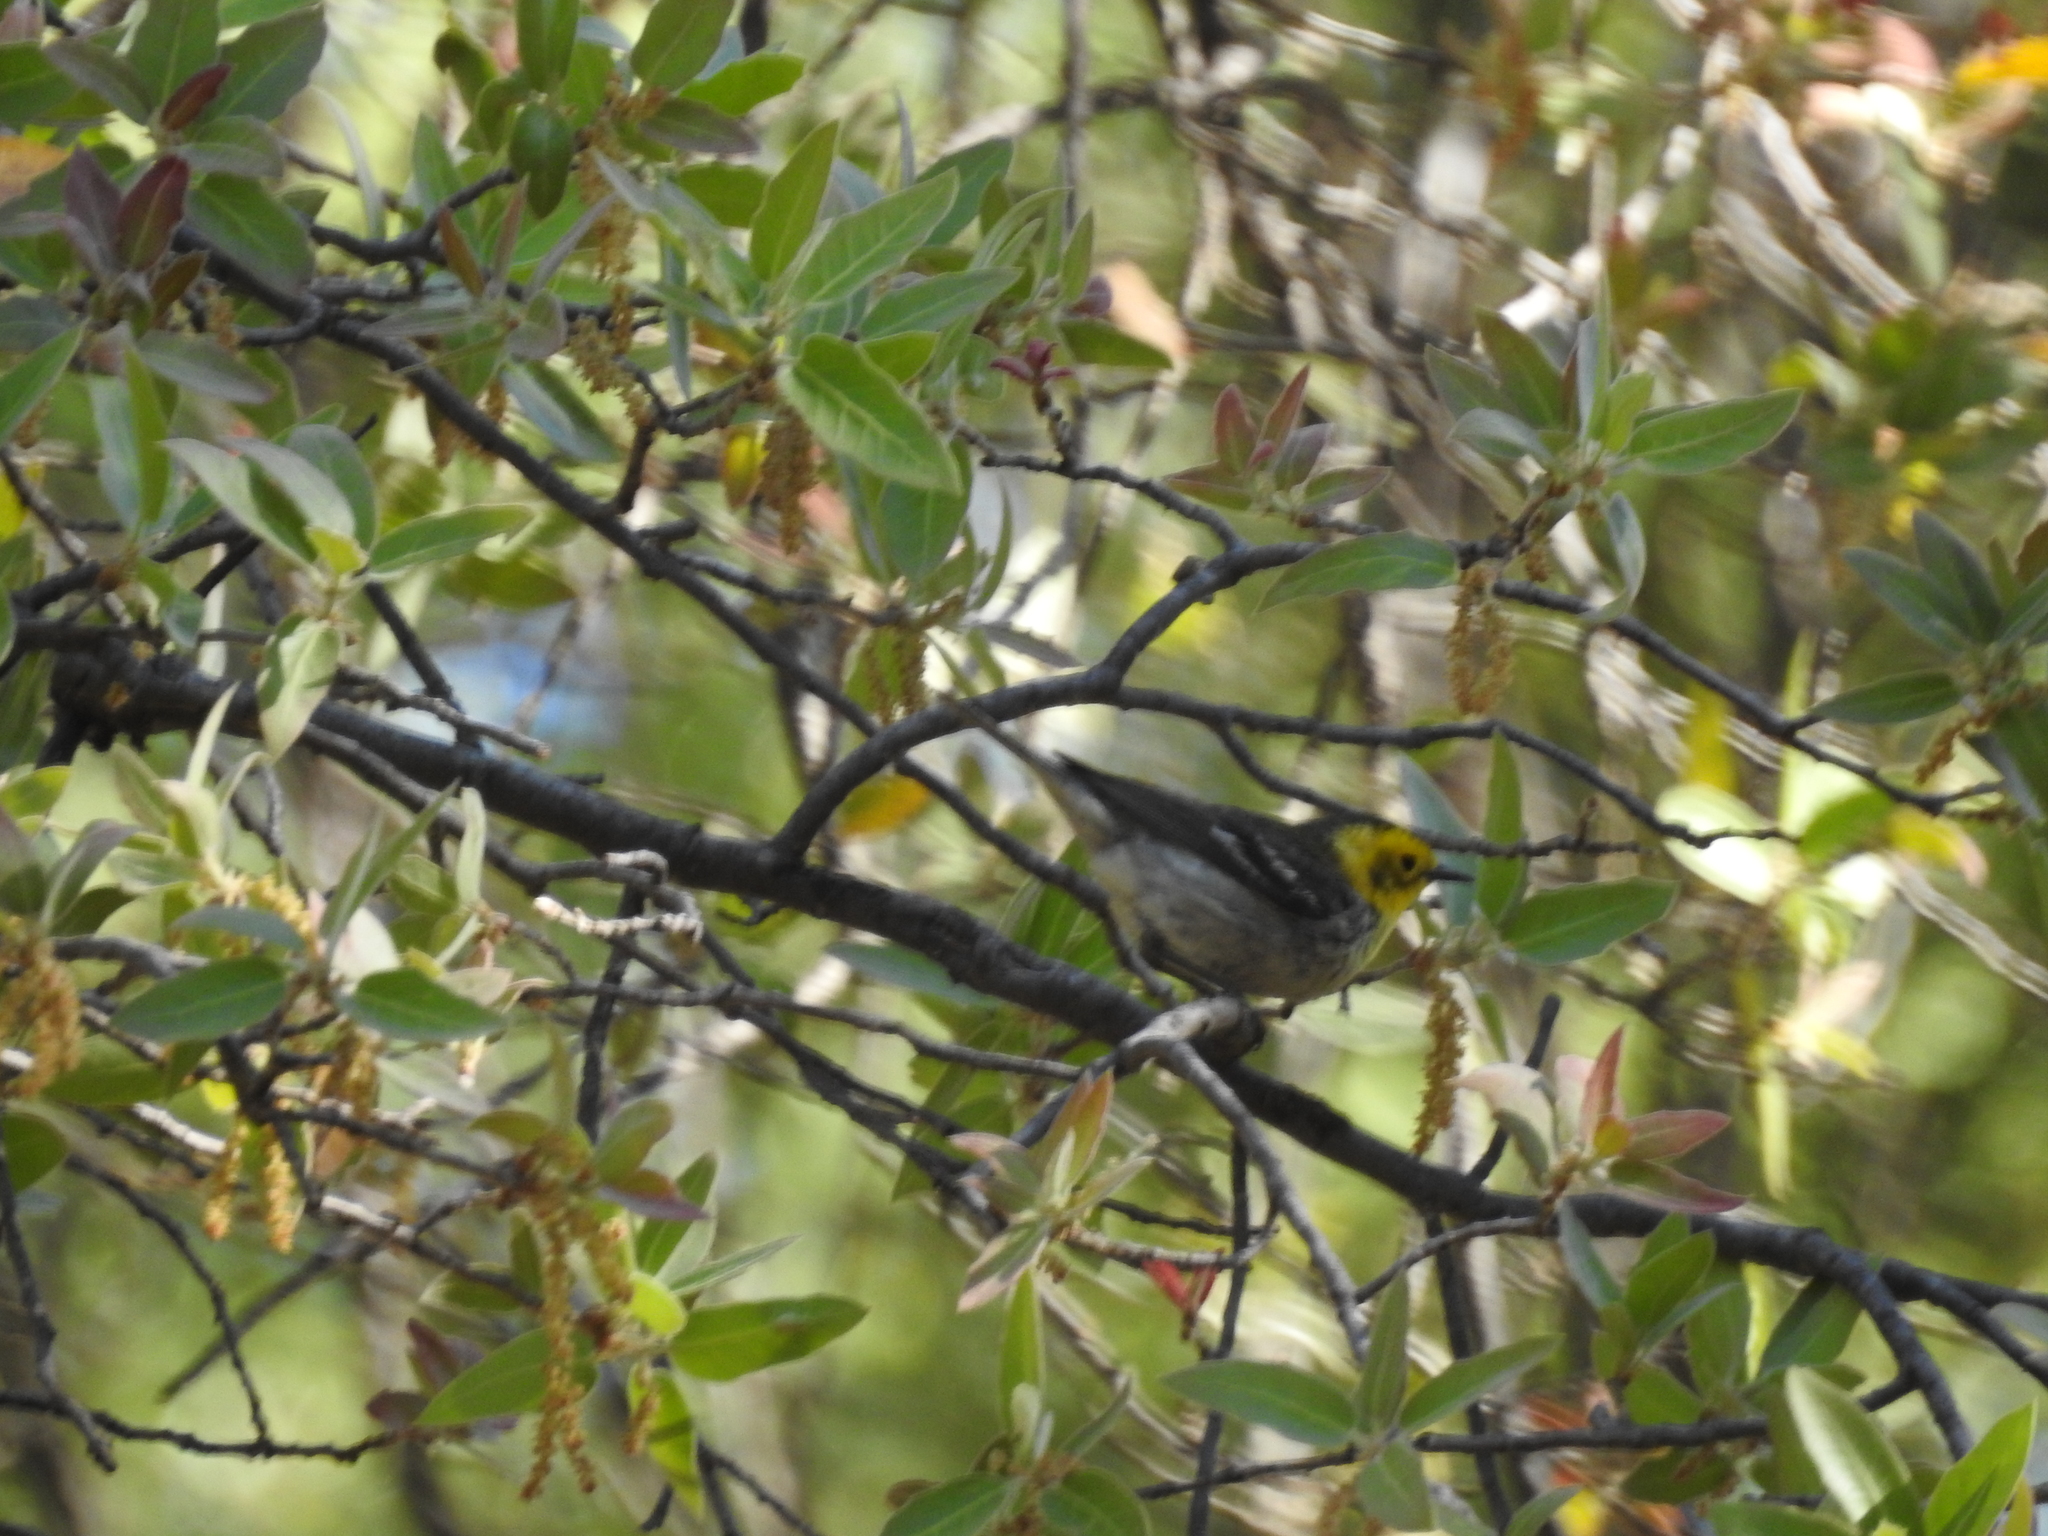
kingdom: Animalia
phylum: Chordata
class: Aves
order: Passeriformes
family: Parulidae
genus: Setophaga
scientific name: Setophaga occidentalis
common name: Hermit warbler
